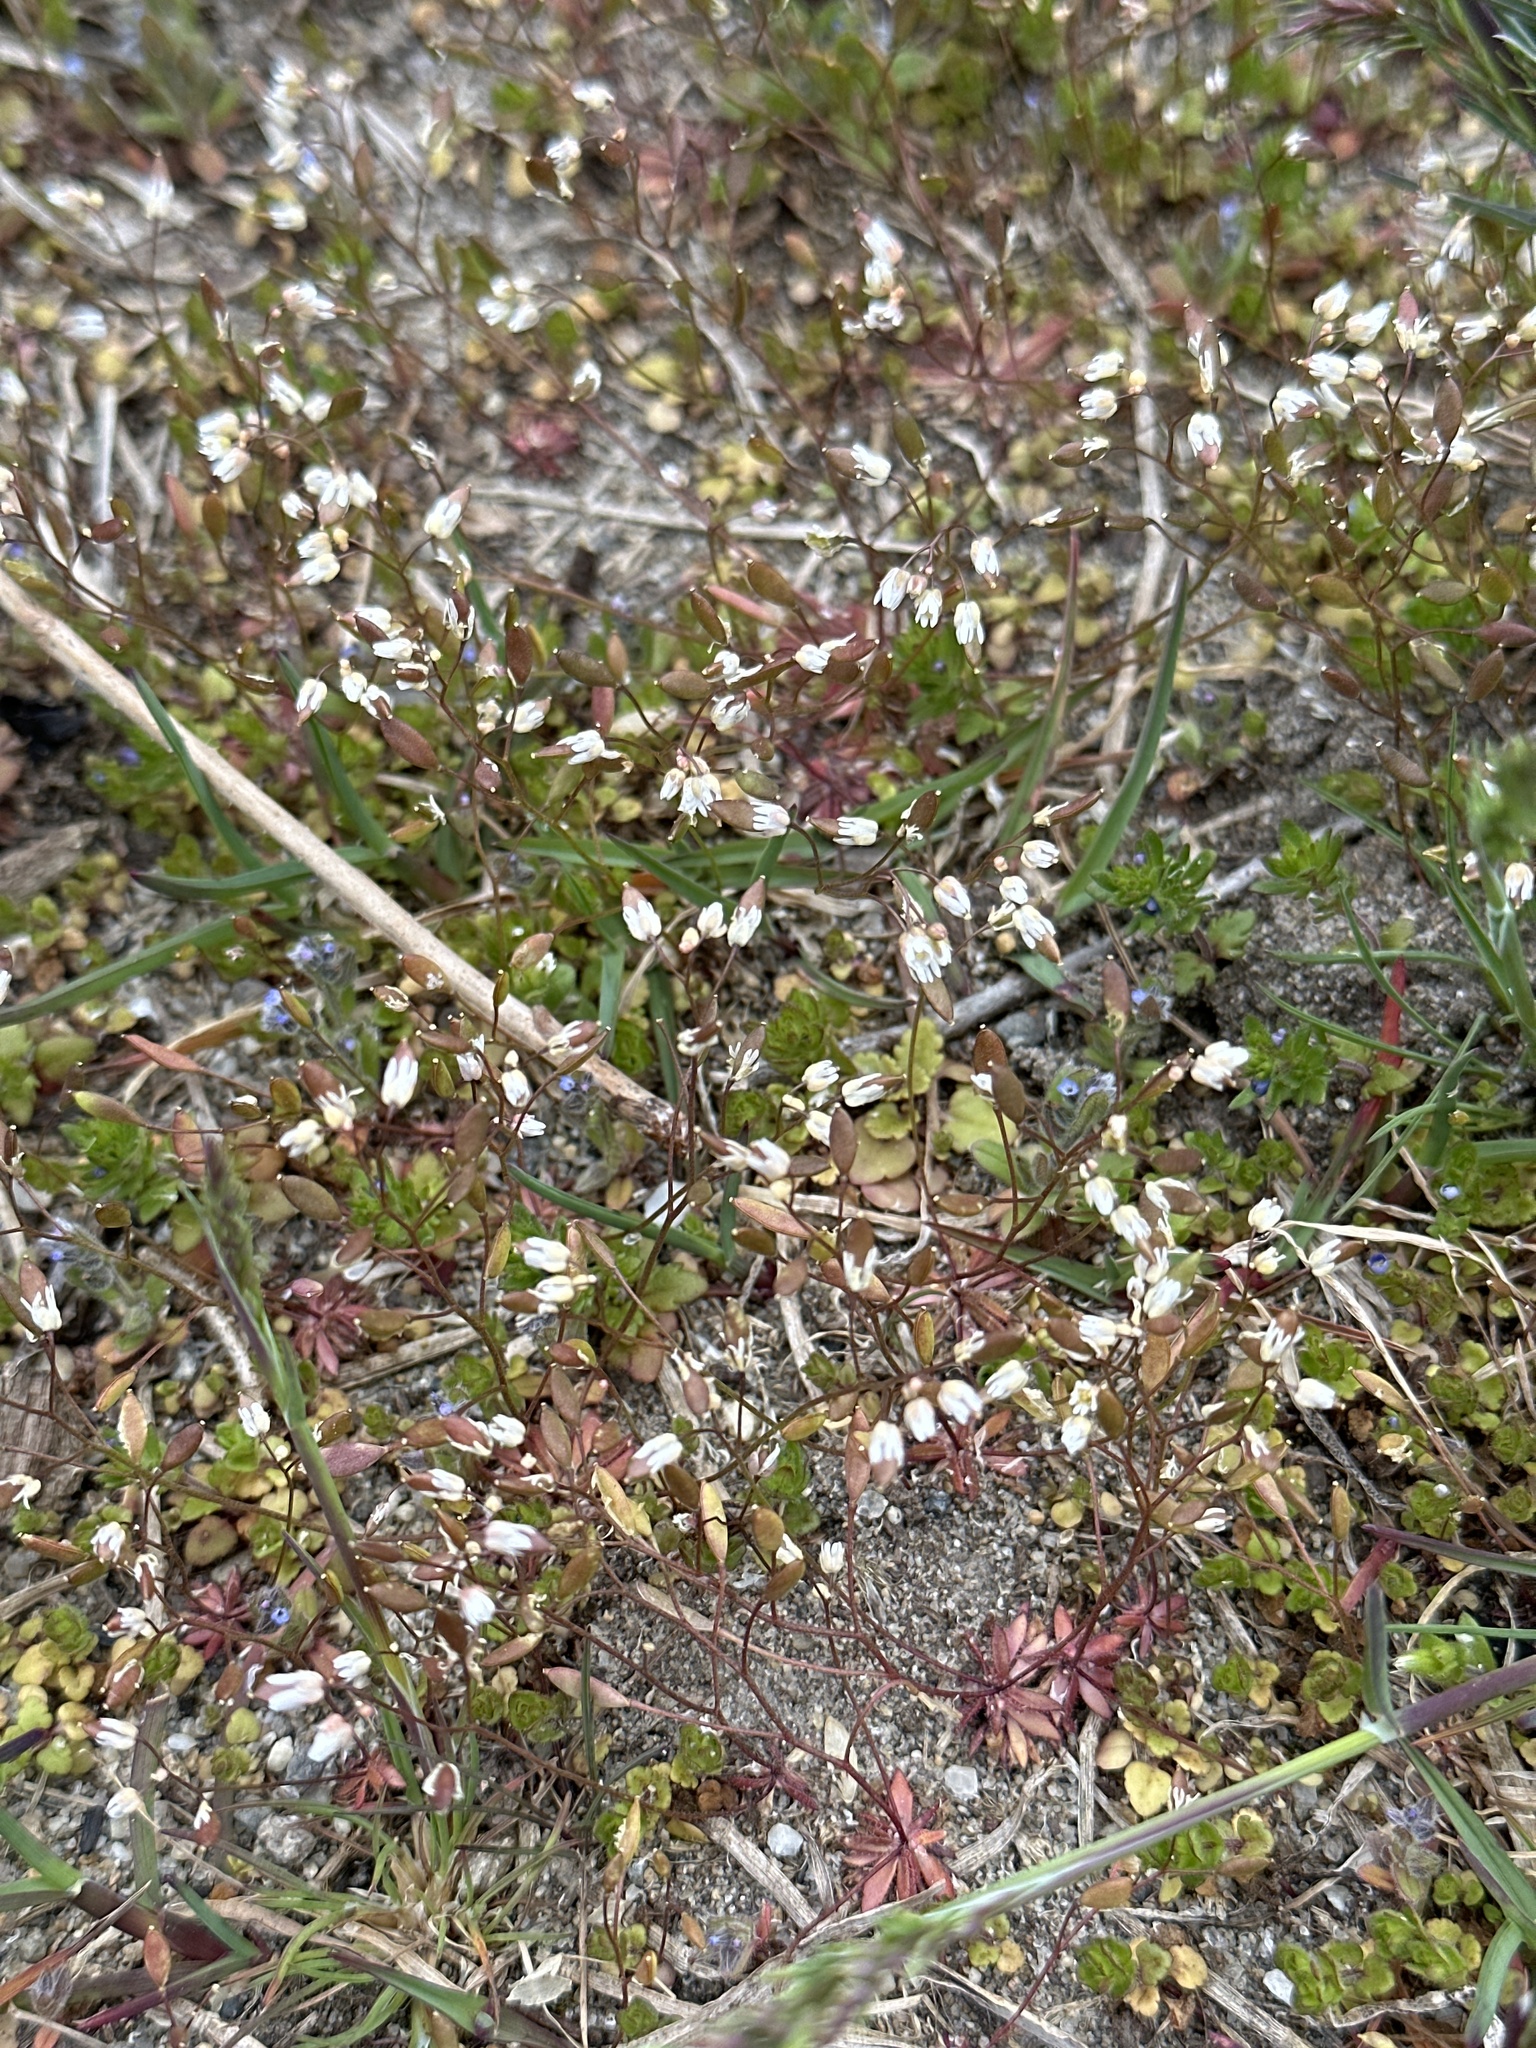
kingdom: Plantae
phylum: Tracheophyta
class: Magnoliopsida
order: Brassicales
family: Brassicaceae
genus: Draba
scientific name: Draba verna
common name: Spring draba
